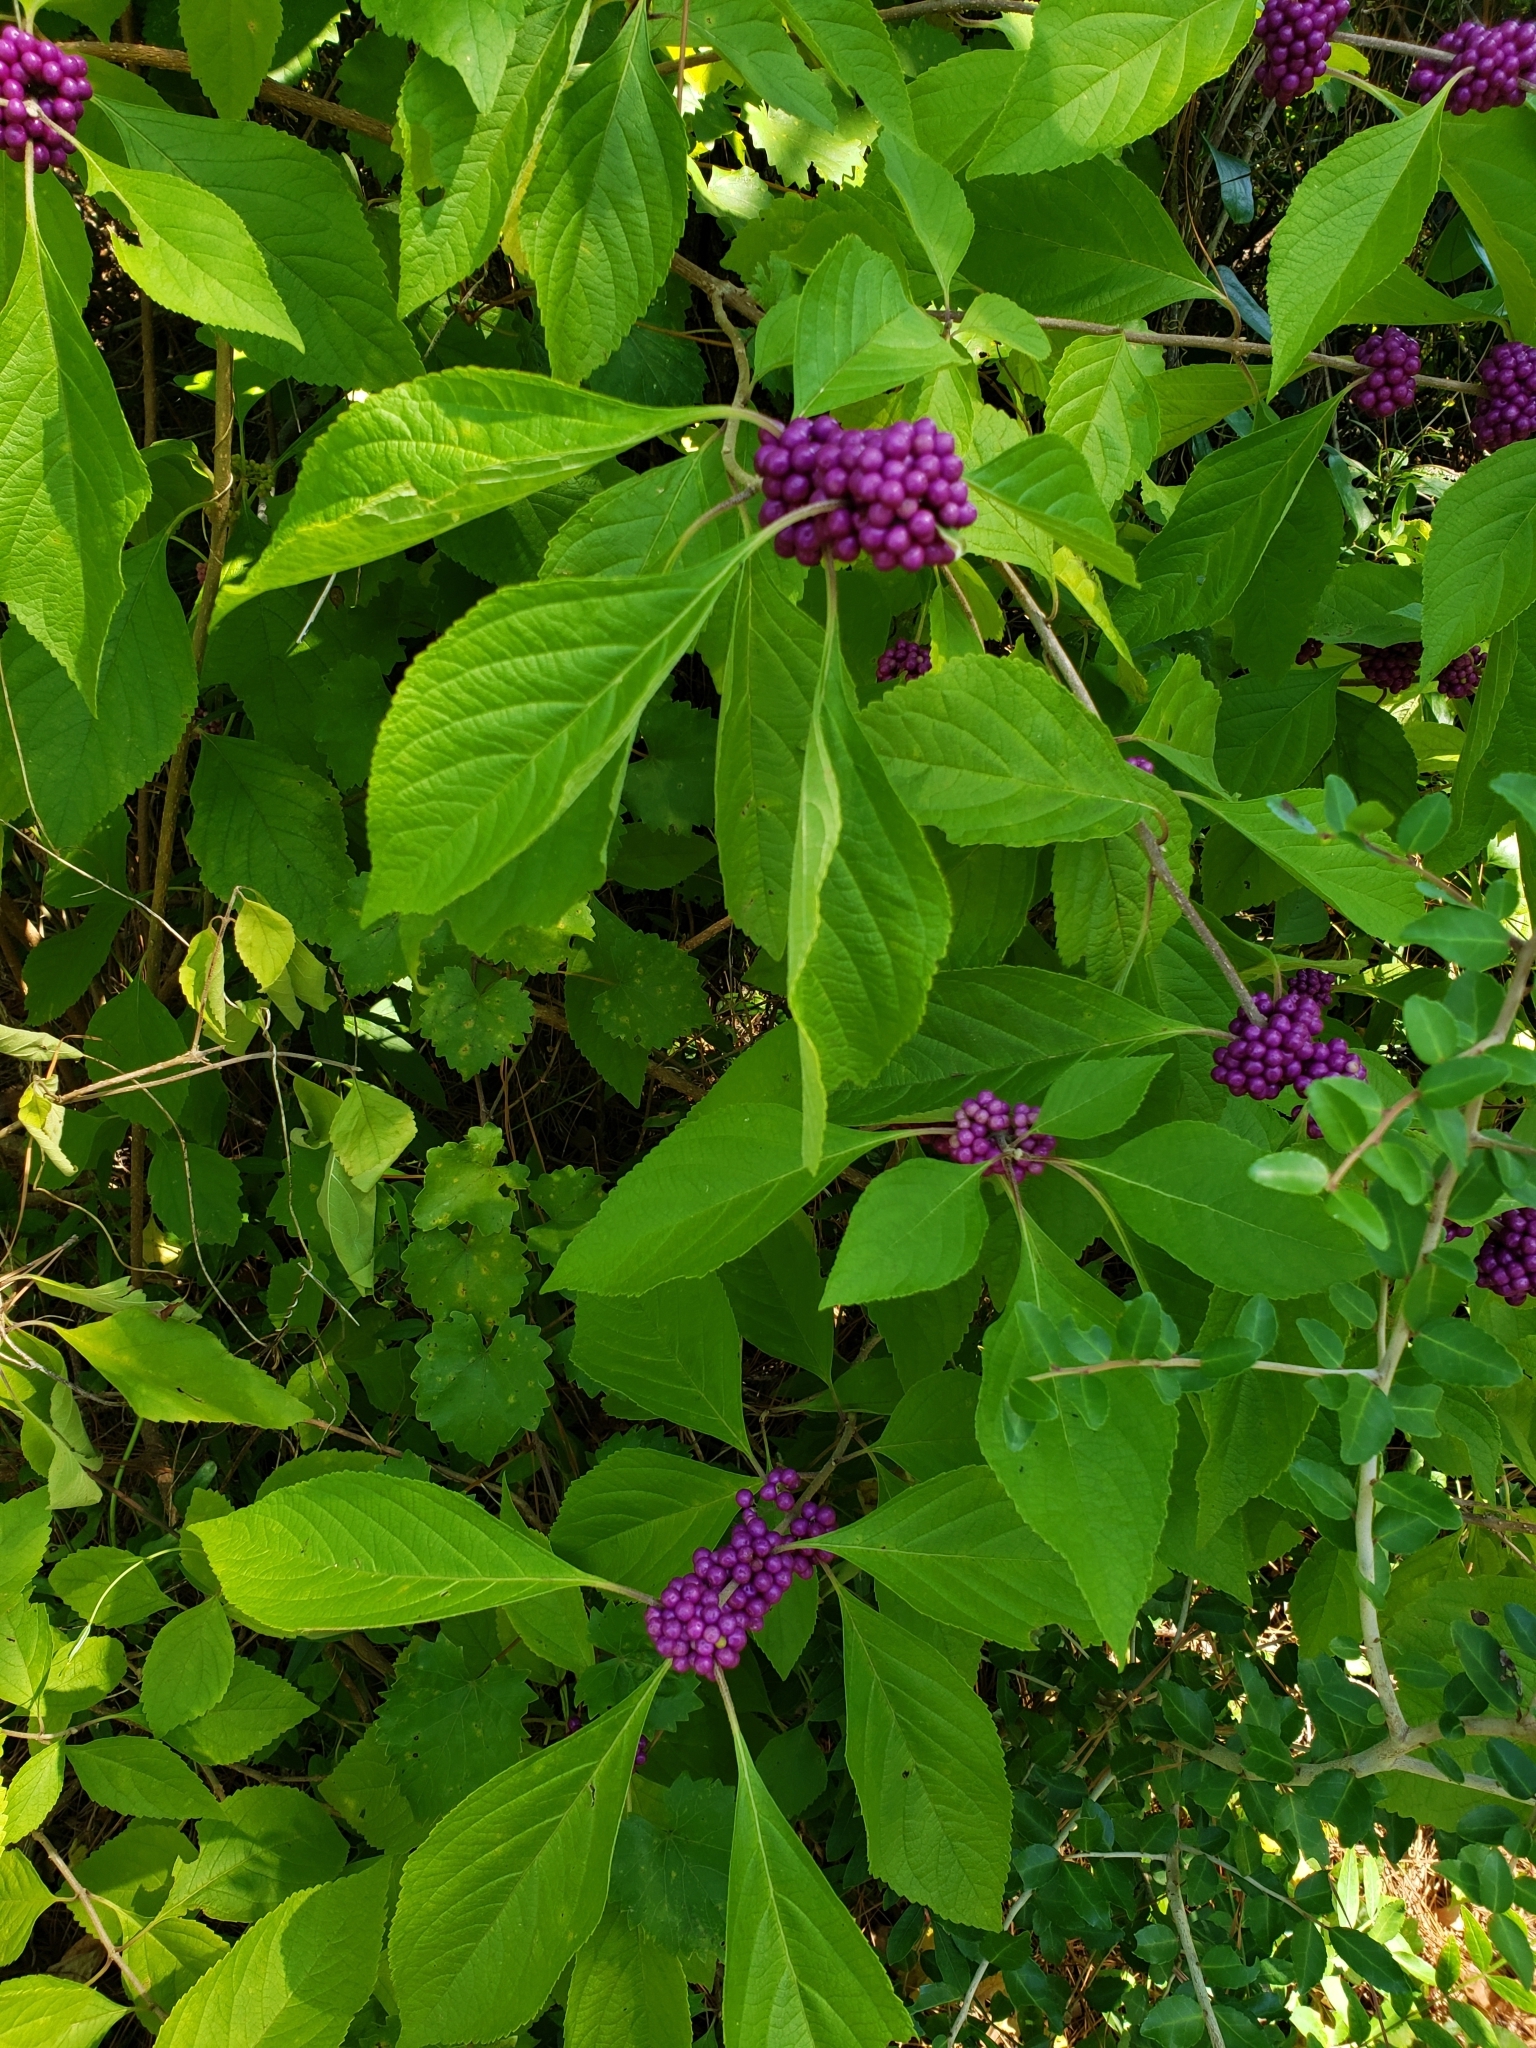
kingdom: Plantae
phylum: Tracheophyta
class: Magnoliopsida
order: Lamiales
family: Lamiaceae
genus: Callicarpa
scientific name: Callicarpa americana
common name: American beautyberry
